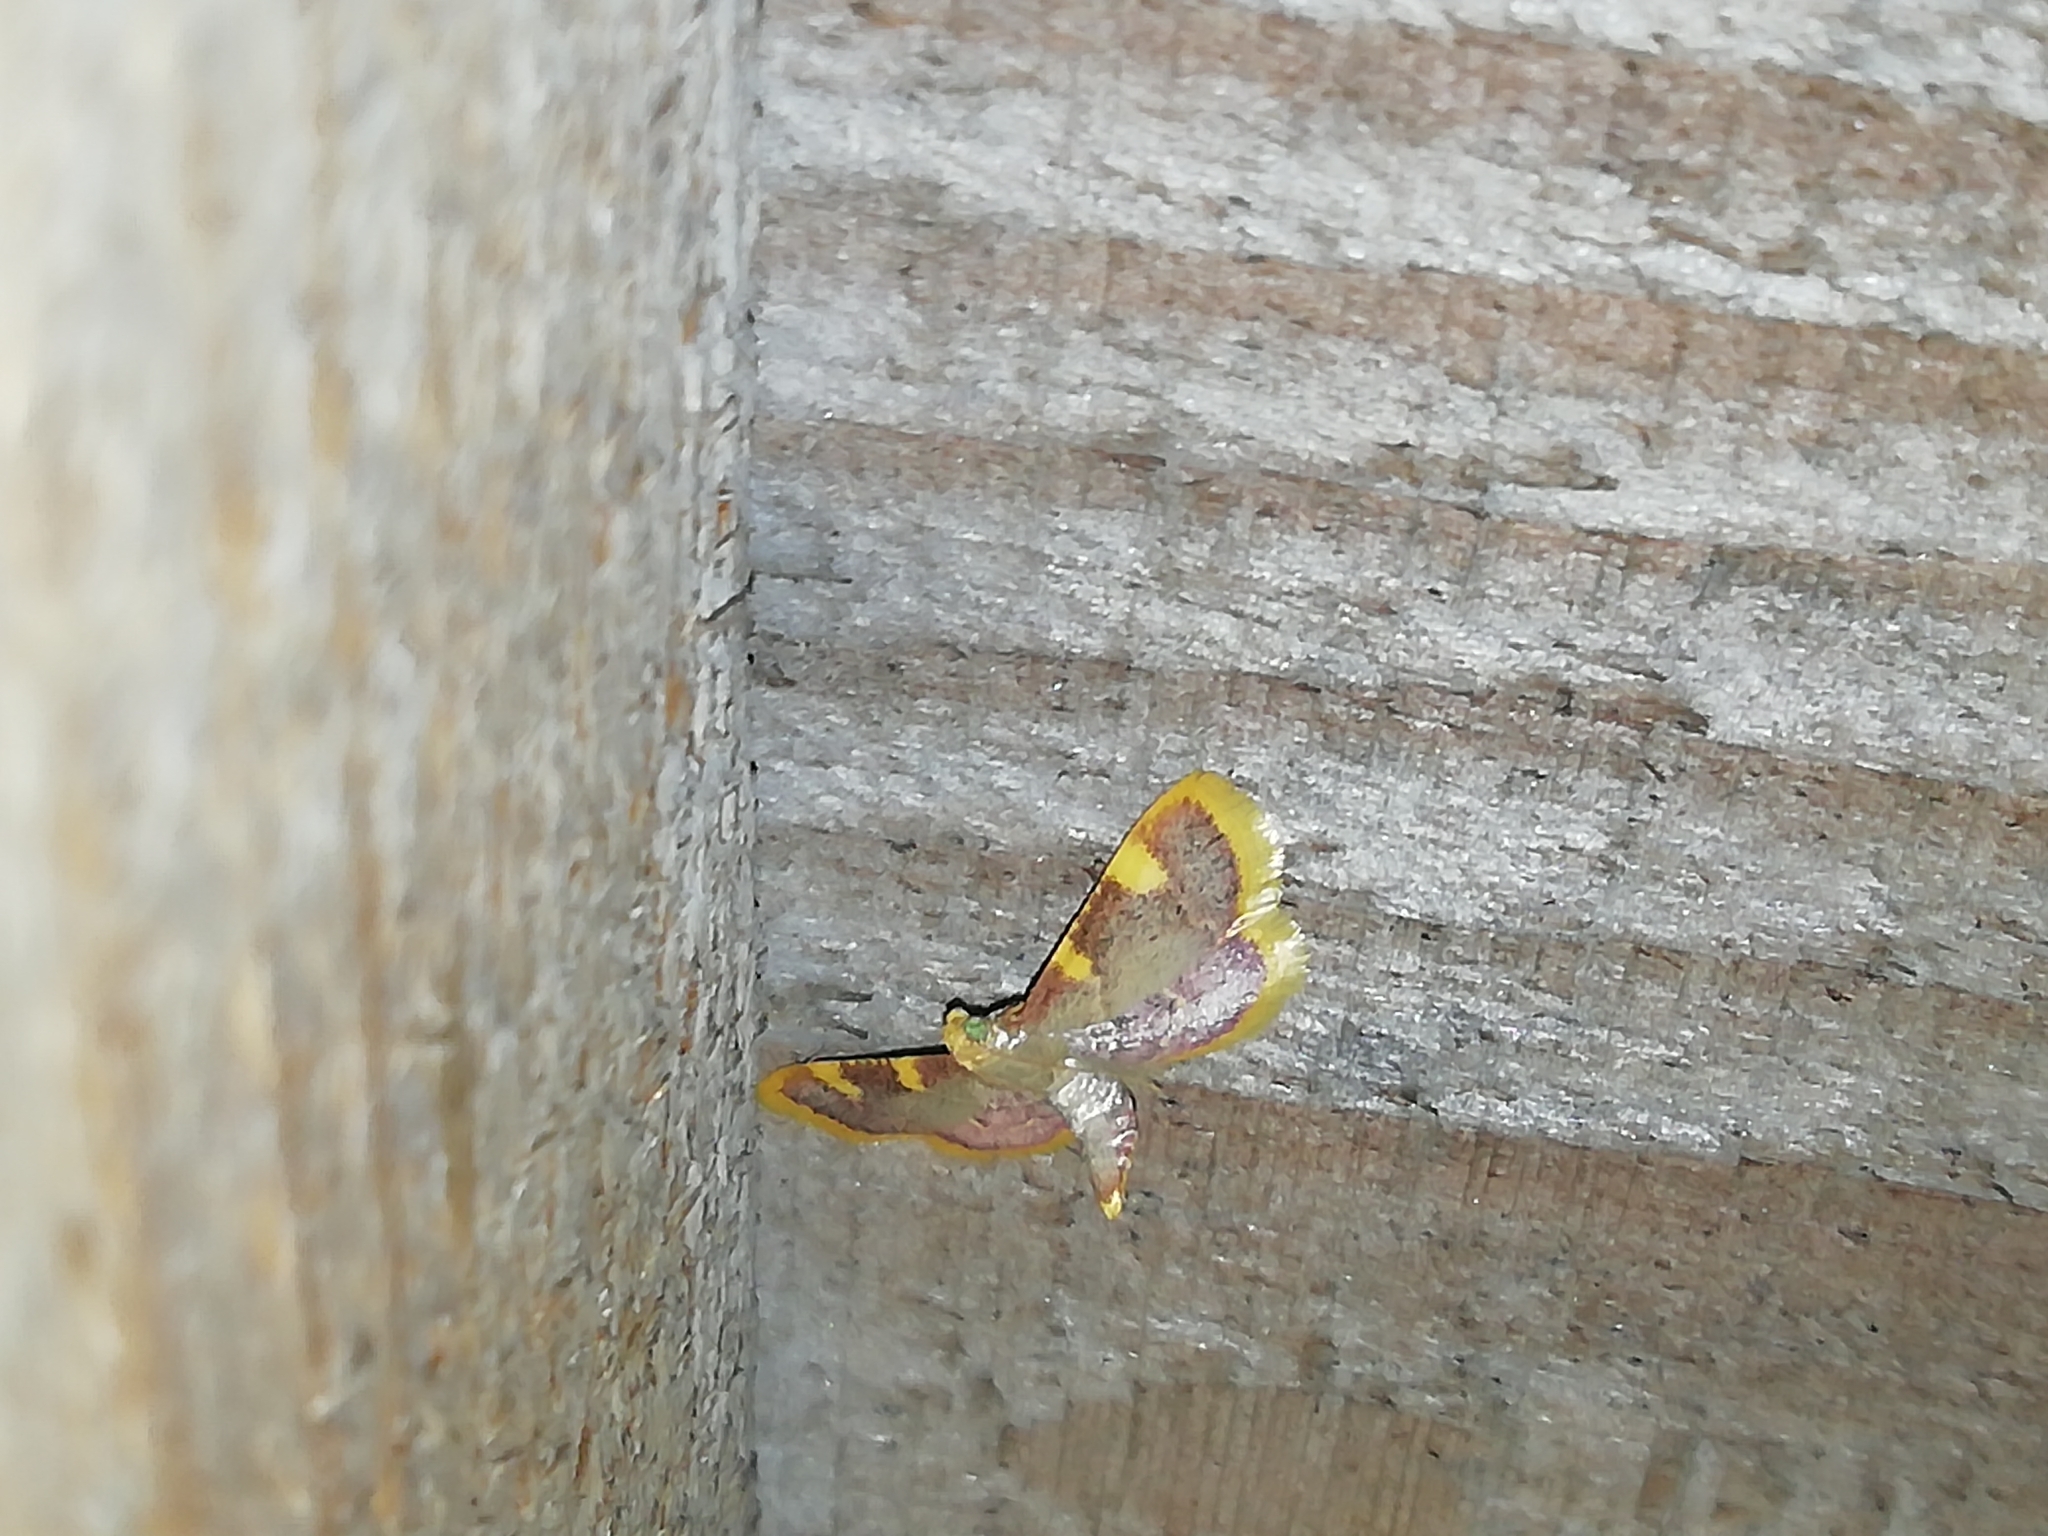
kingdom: Animalia
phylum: Arthropoda
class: Insecta
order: Lepidoptera
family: Pyralidae
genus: Hypsopygia
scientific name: Hypsopygia costalis
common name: Gold triangle
